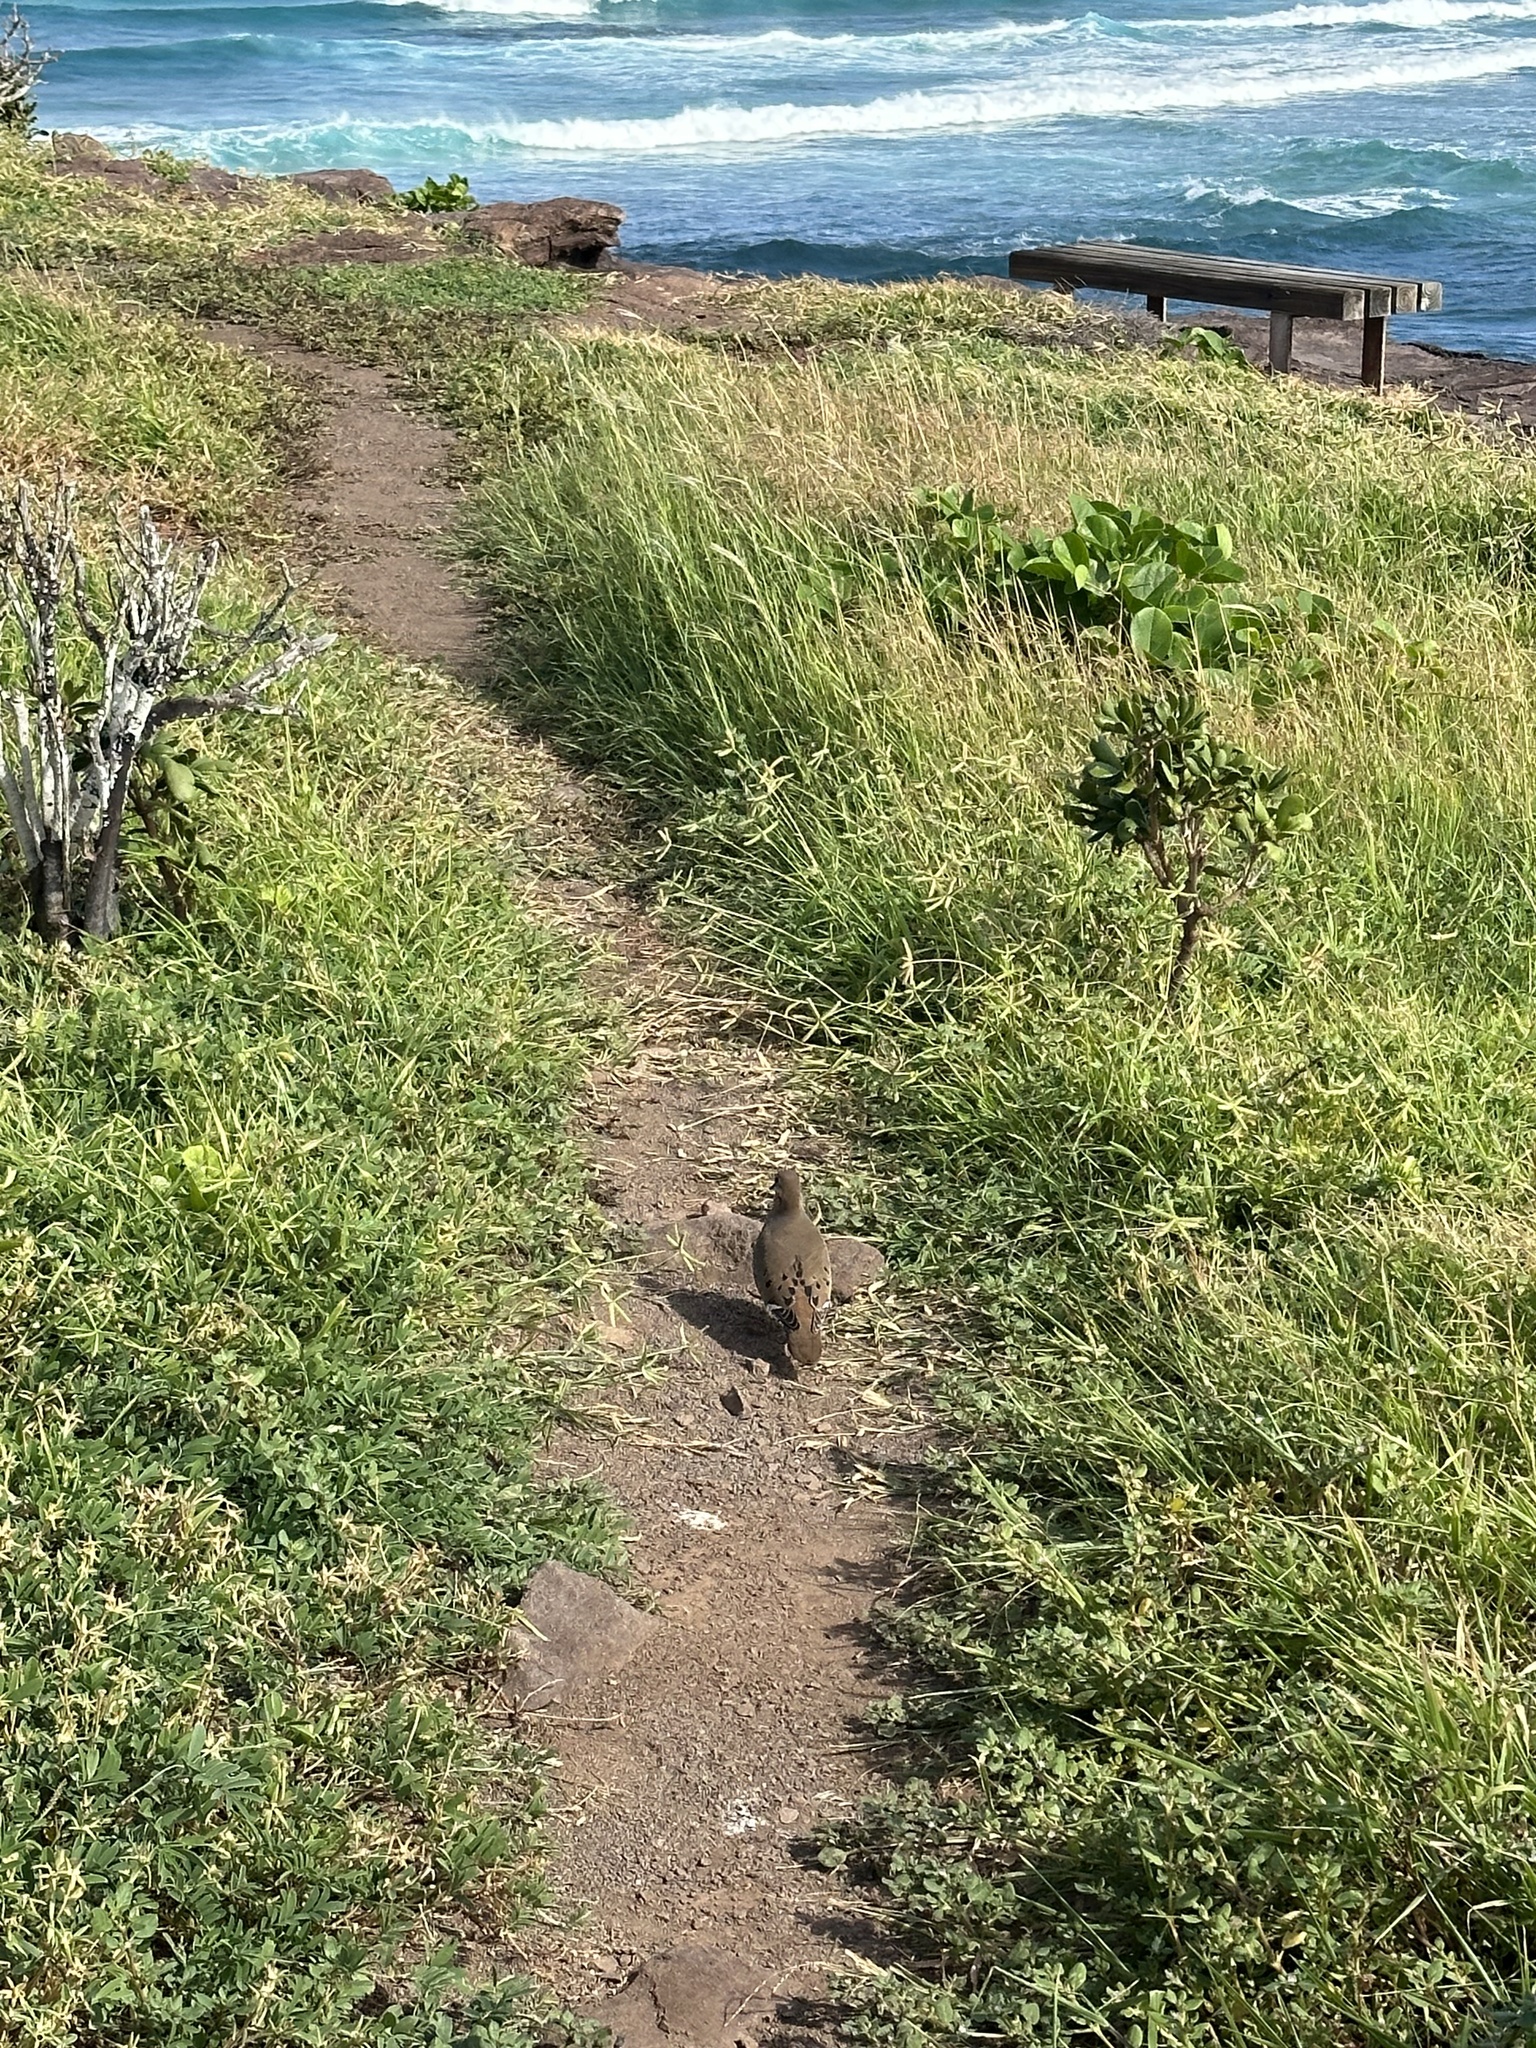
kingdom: Animalia
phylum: Chordata
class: Aves
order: Columbiformes
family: Columbidae
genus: Zenaida
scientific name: Zenaida aurita
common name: Zenaida dove
